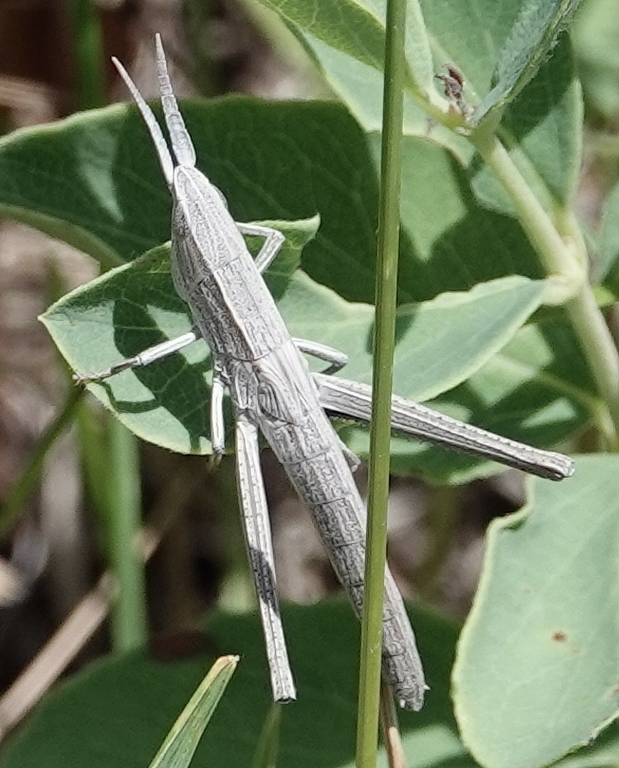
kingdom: Animalia
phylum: Arthropoda
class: Insecta
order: Orthoptera
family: Acrididae
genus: Pseudopomala
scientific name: Pseudopomala brachyptera
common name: Bunchgrass grasshopper
